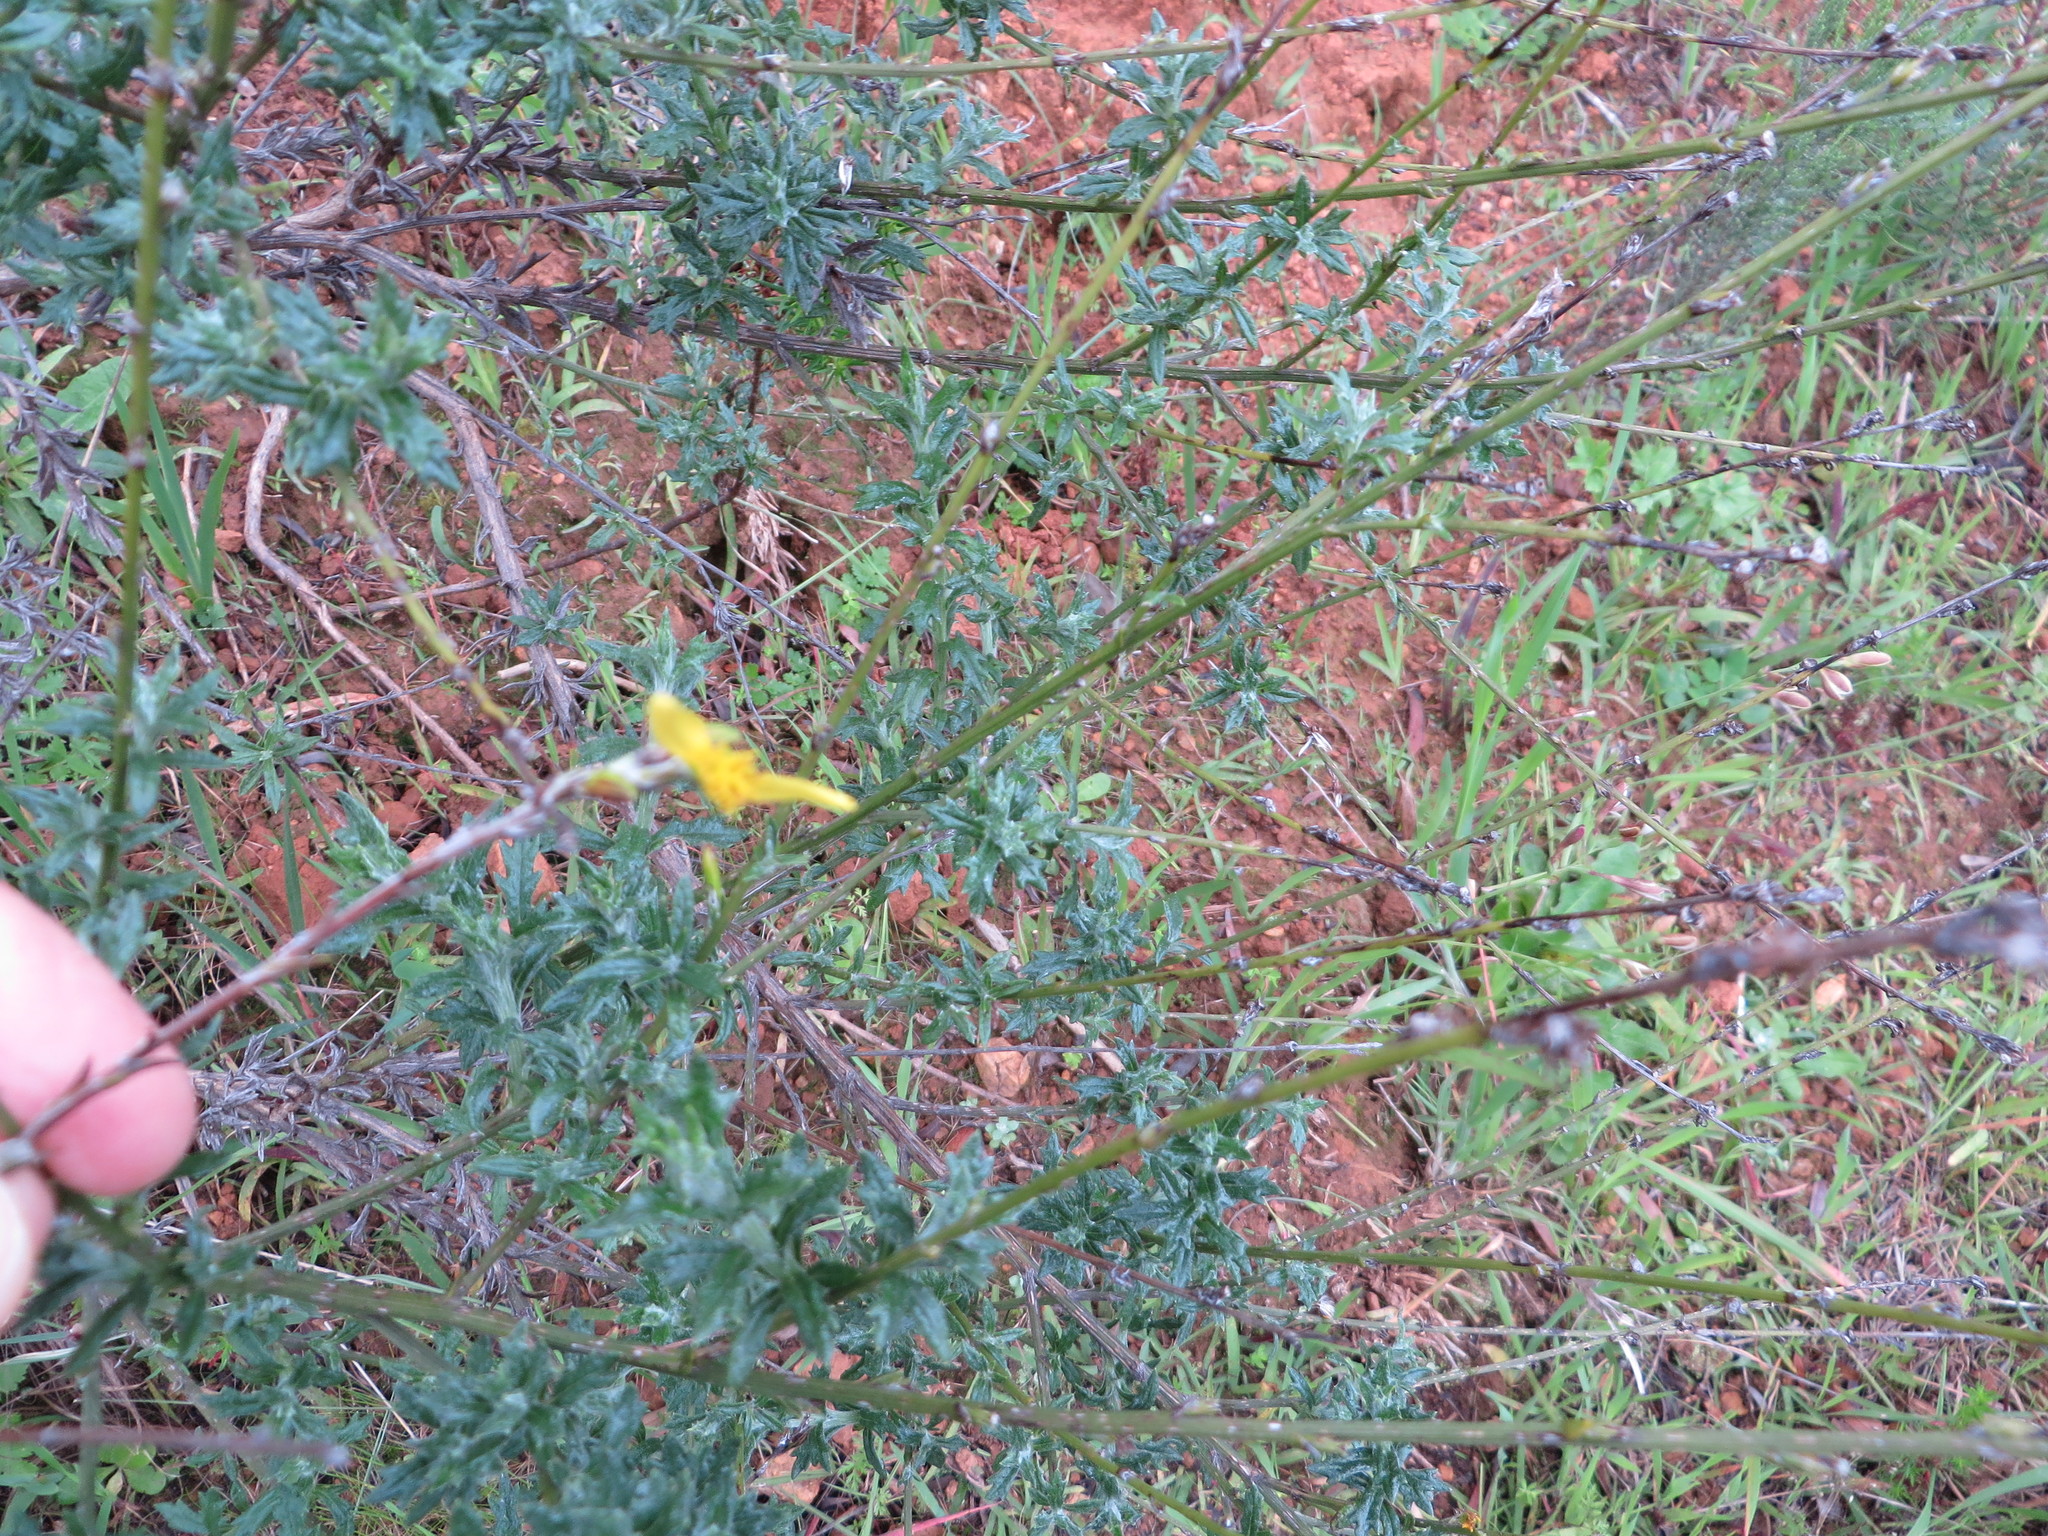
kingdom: Plantae
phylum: Tracheophyta
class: Magnoliopsida
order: Asterales
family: Asteraceae
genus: Senecio
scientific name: Senecio pubigerus
